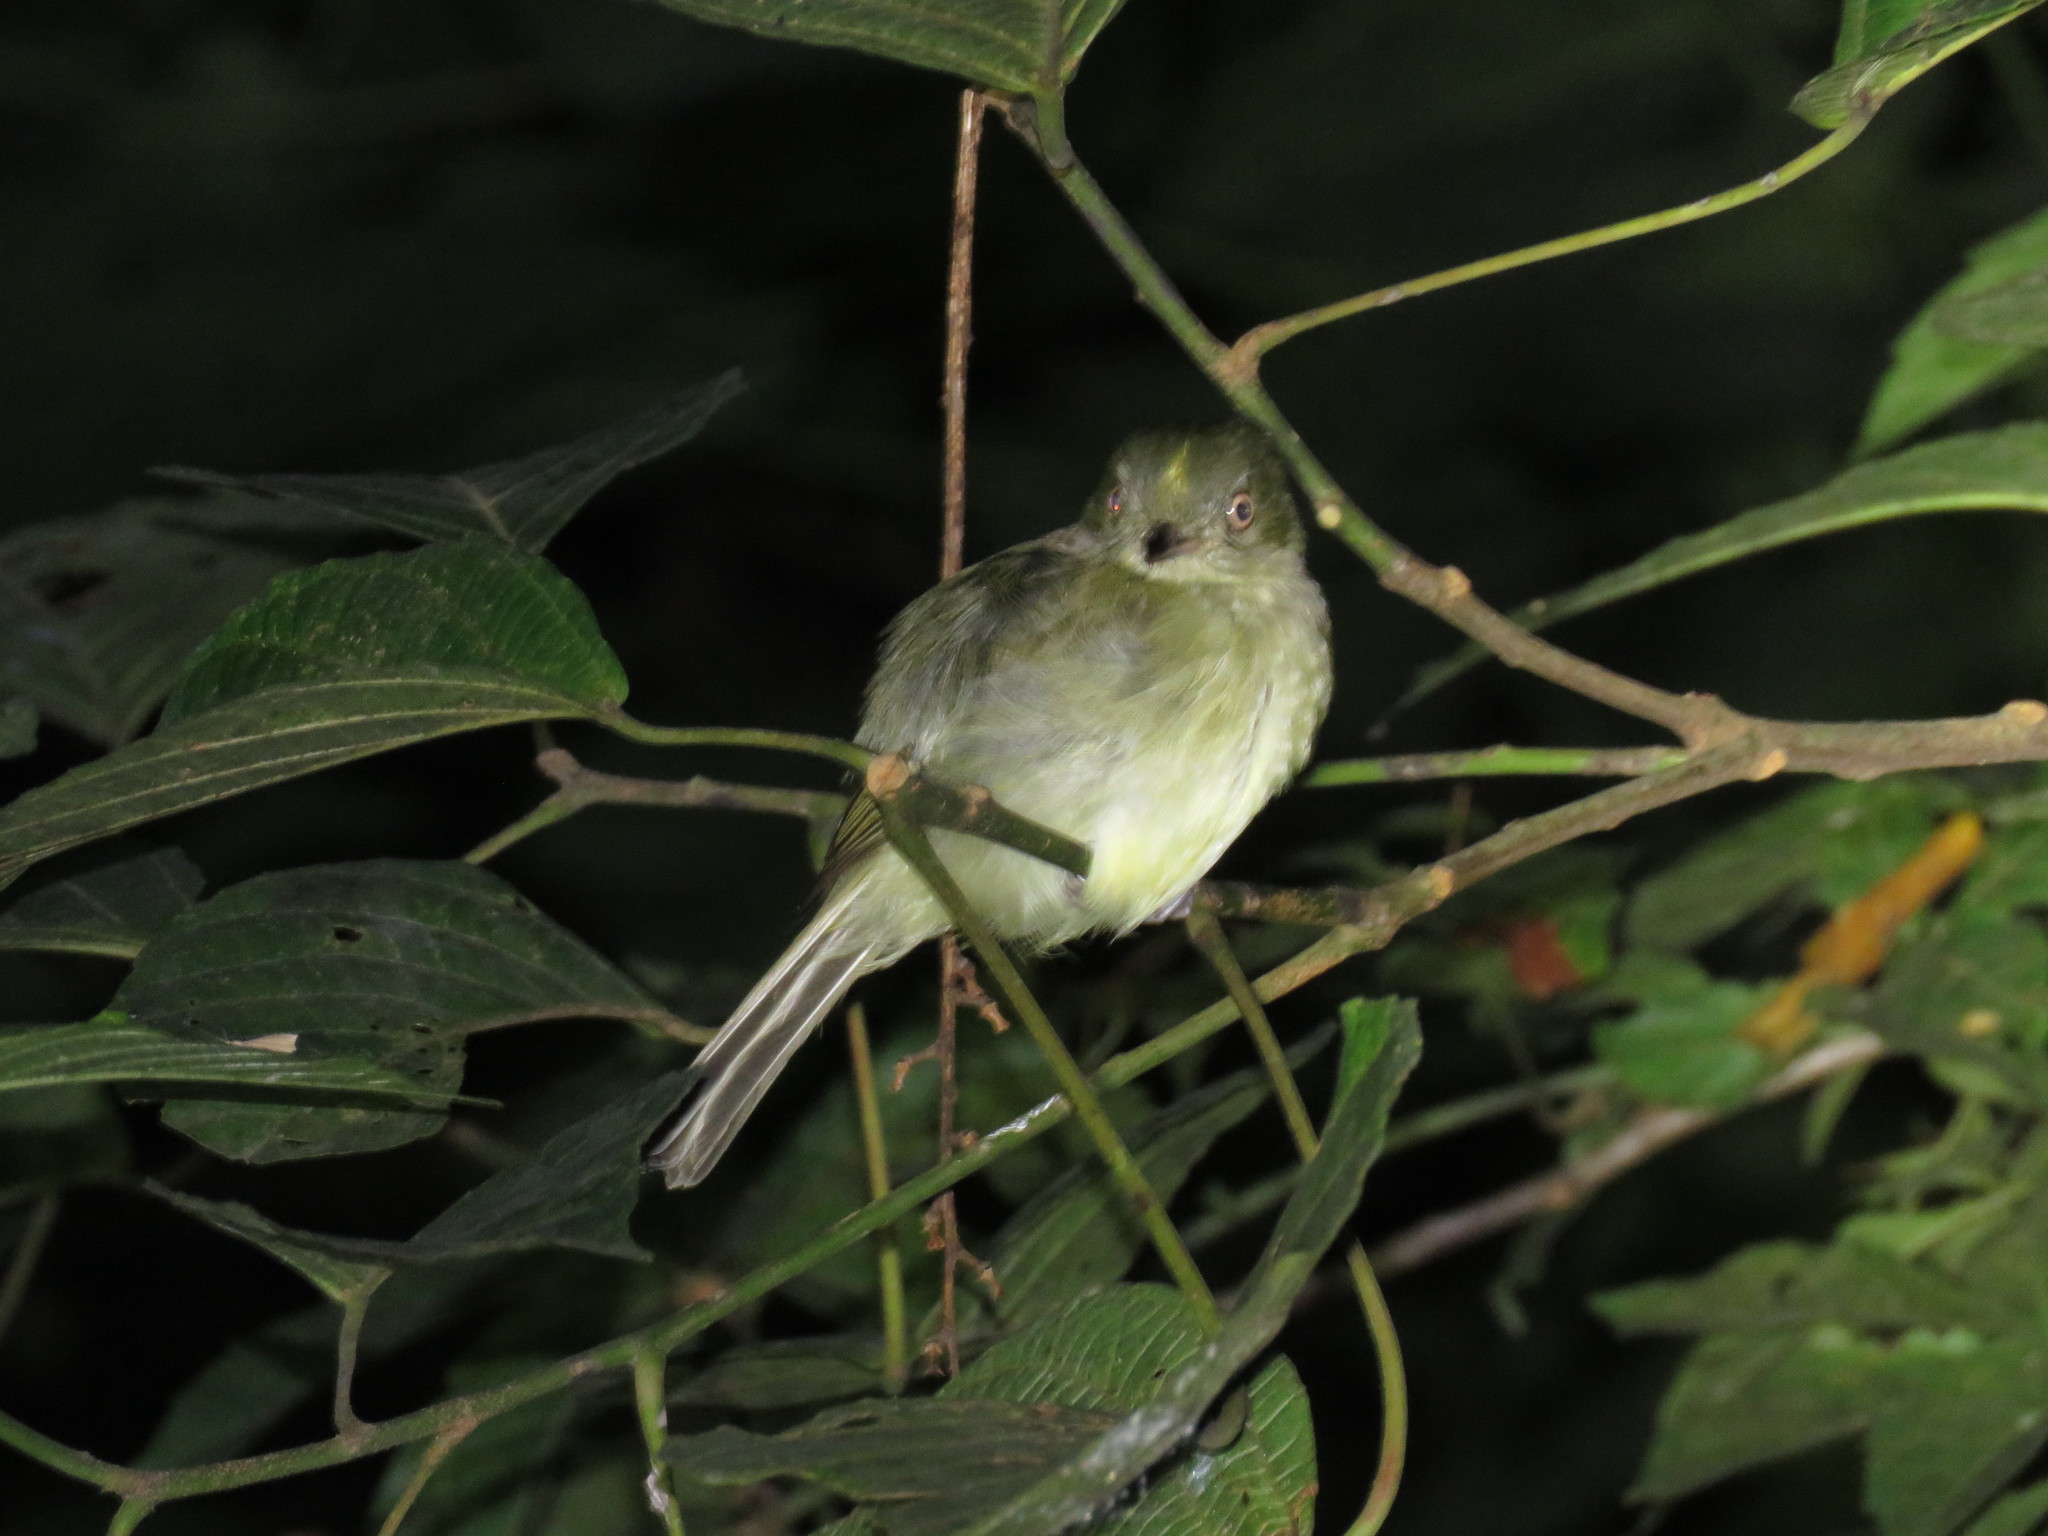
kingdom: Animalia
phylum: Chordata
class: Aves
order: Passeriformes
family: Pipridae
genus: Neopelma
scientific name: Neopelma sulphureiventer
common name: Sulphur-bellied tyrant-manakin
